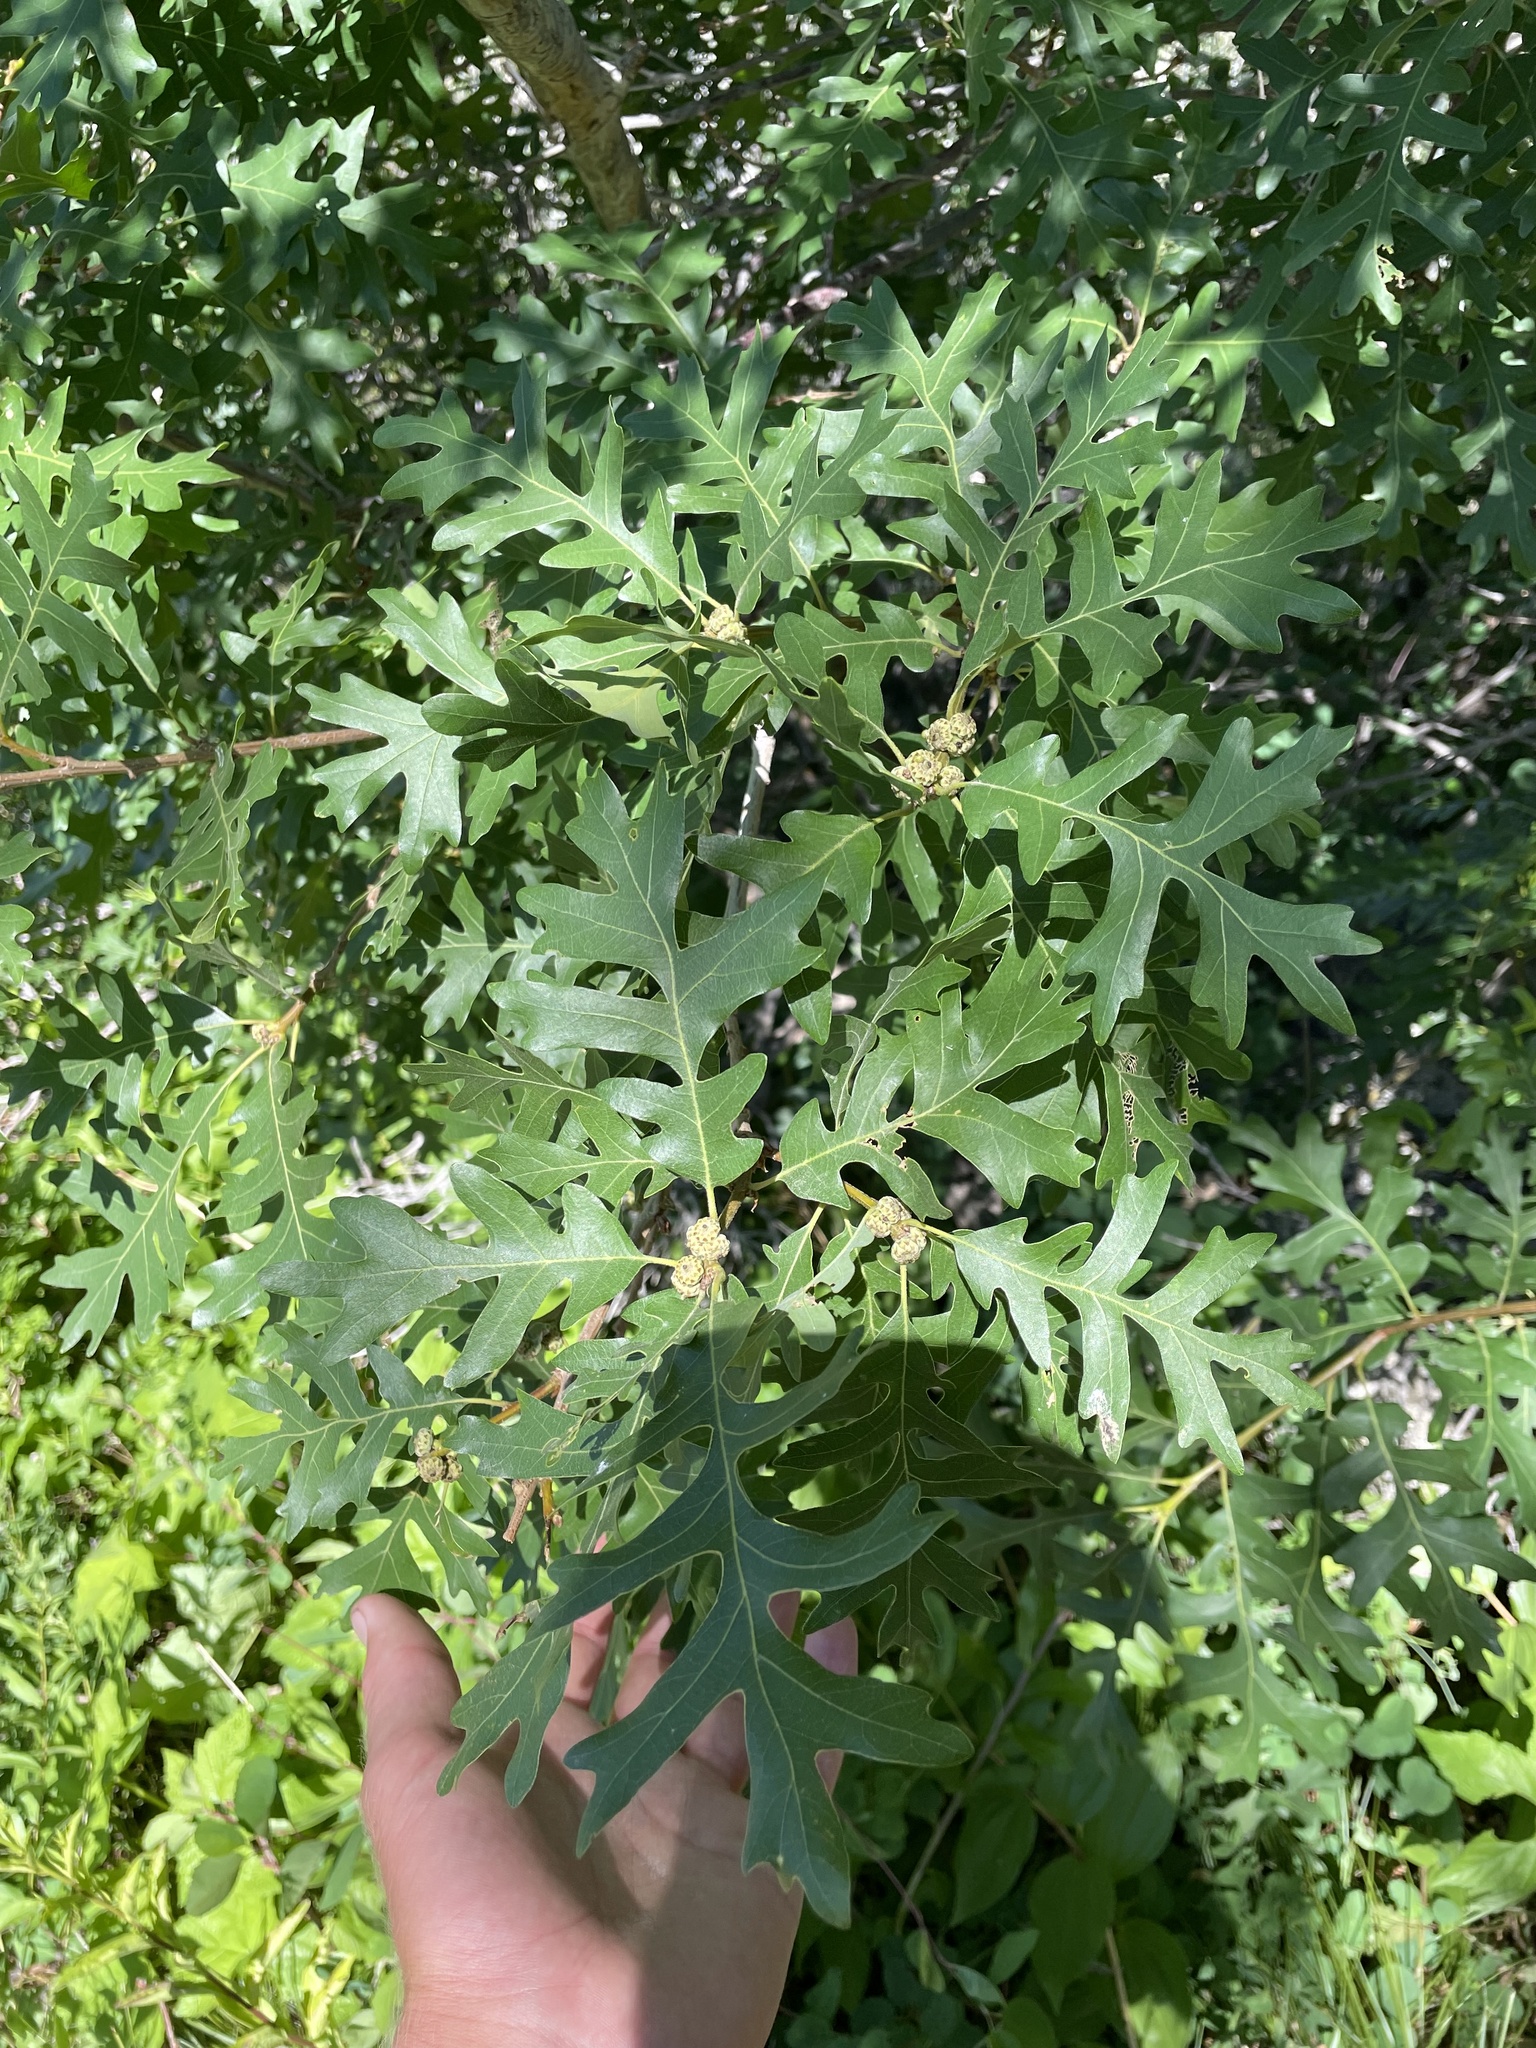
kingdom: Plantae
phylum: Tracheophyta
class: Magnoliopsida
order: Fagales
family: Fagaceae
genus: Quercus
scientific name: Quercus gambelii
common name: Gambel oak
